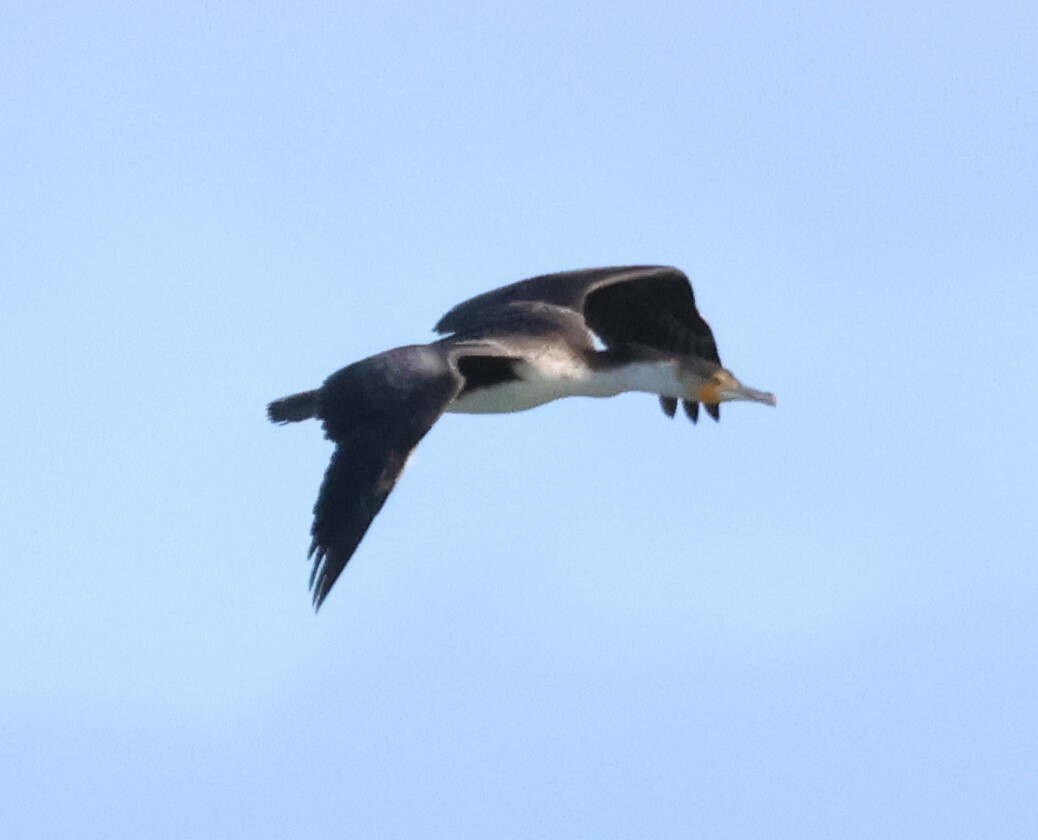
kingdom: Animalia
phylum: Chordata
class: Aves
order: Suliformes
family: Phalacrocoracidae
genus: Phalacrocorax
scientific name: Phalacrocorax carbo
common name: Great cormorant
